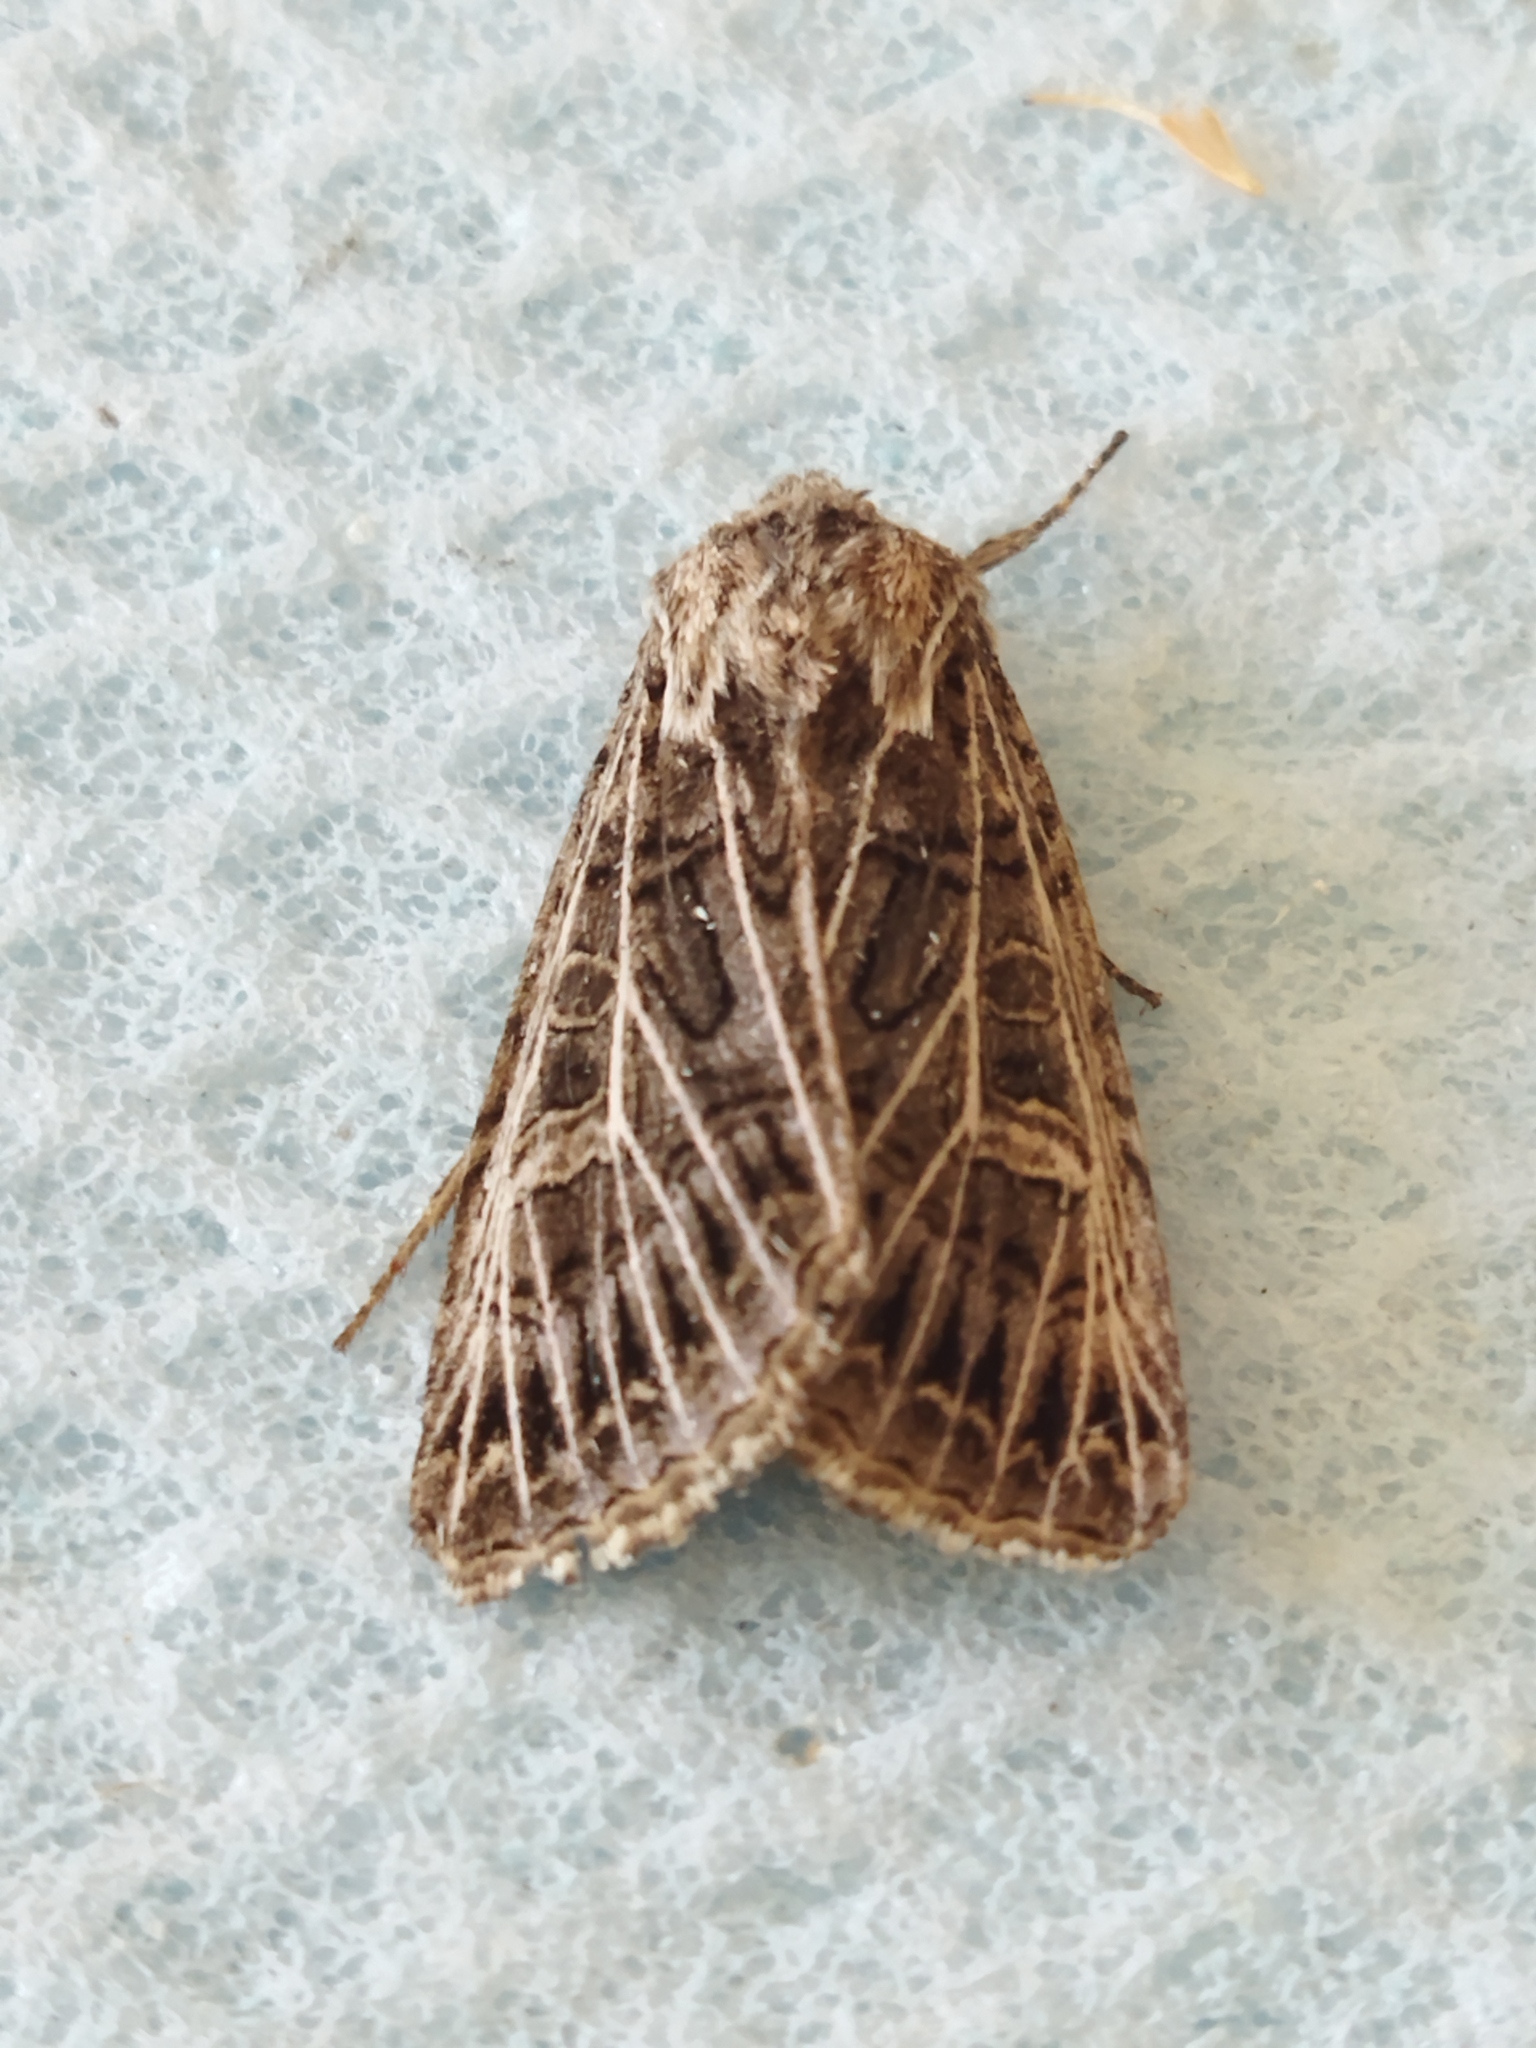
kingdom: Animalia
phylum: Arthropoda
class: Insecta
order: Lepidoptera
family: Noctuidae
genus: Tholera
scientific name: Tholera decimalis
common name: Feathered gothic
